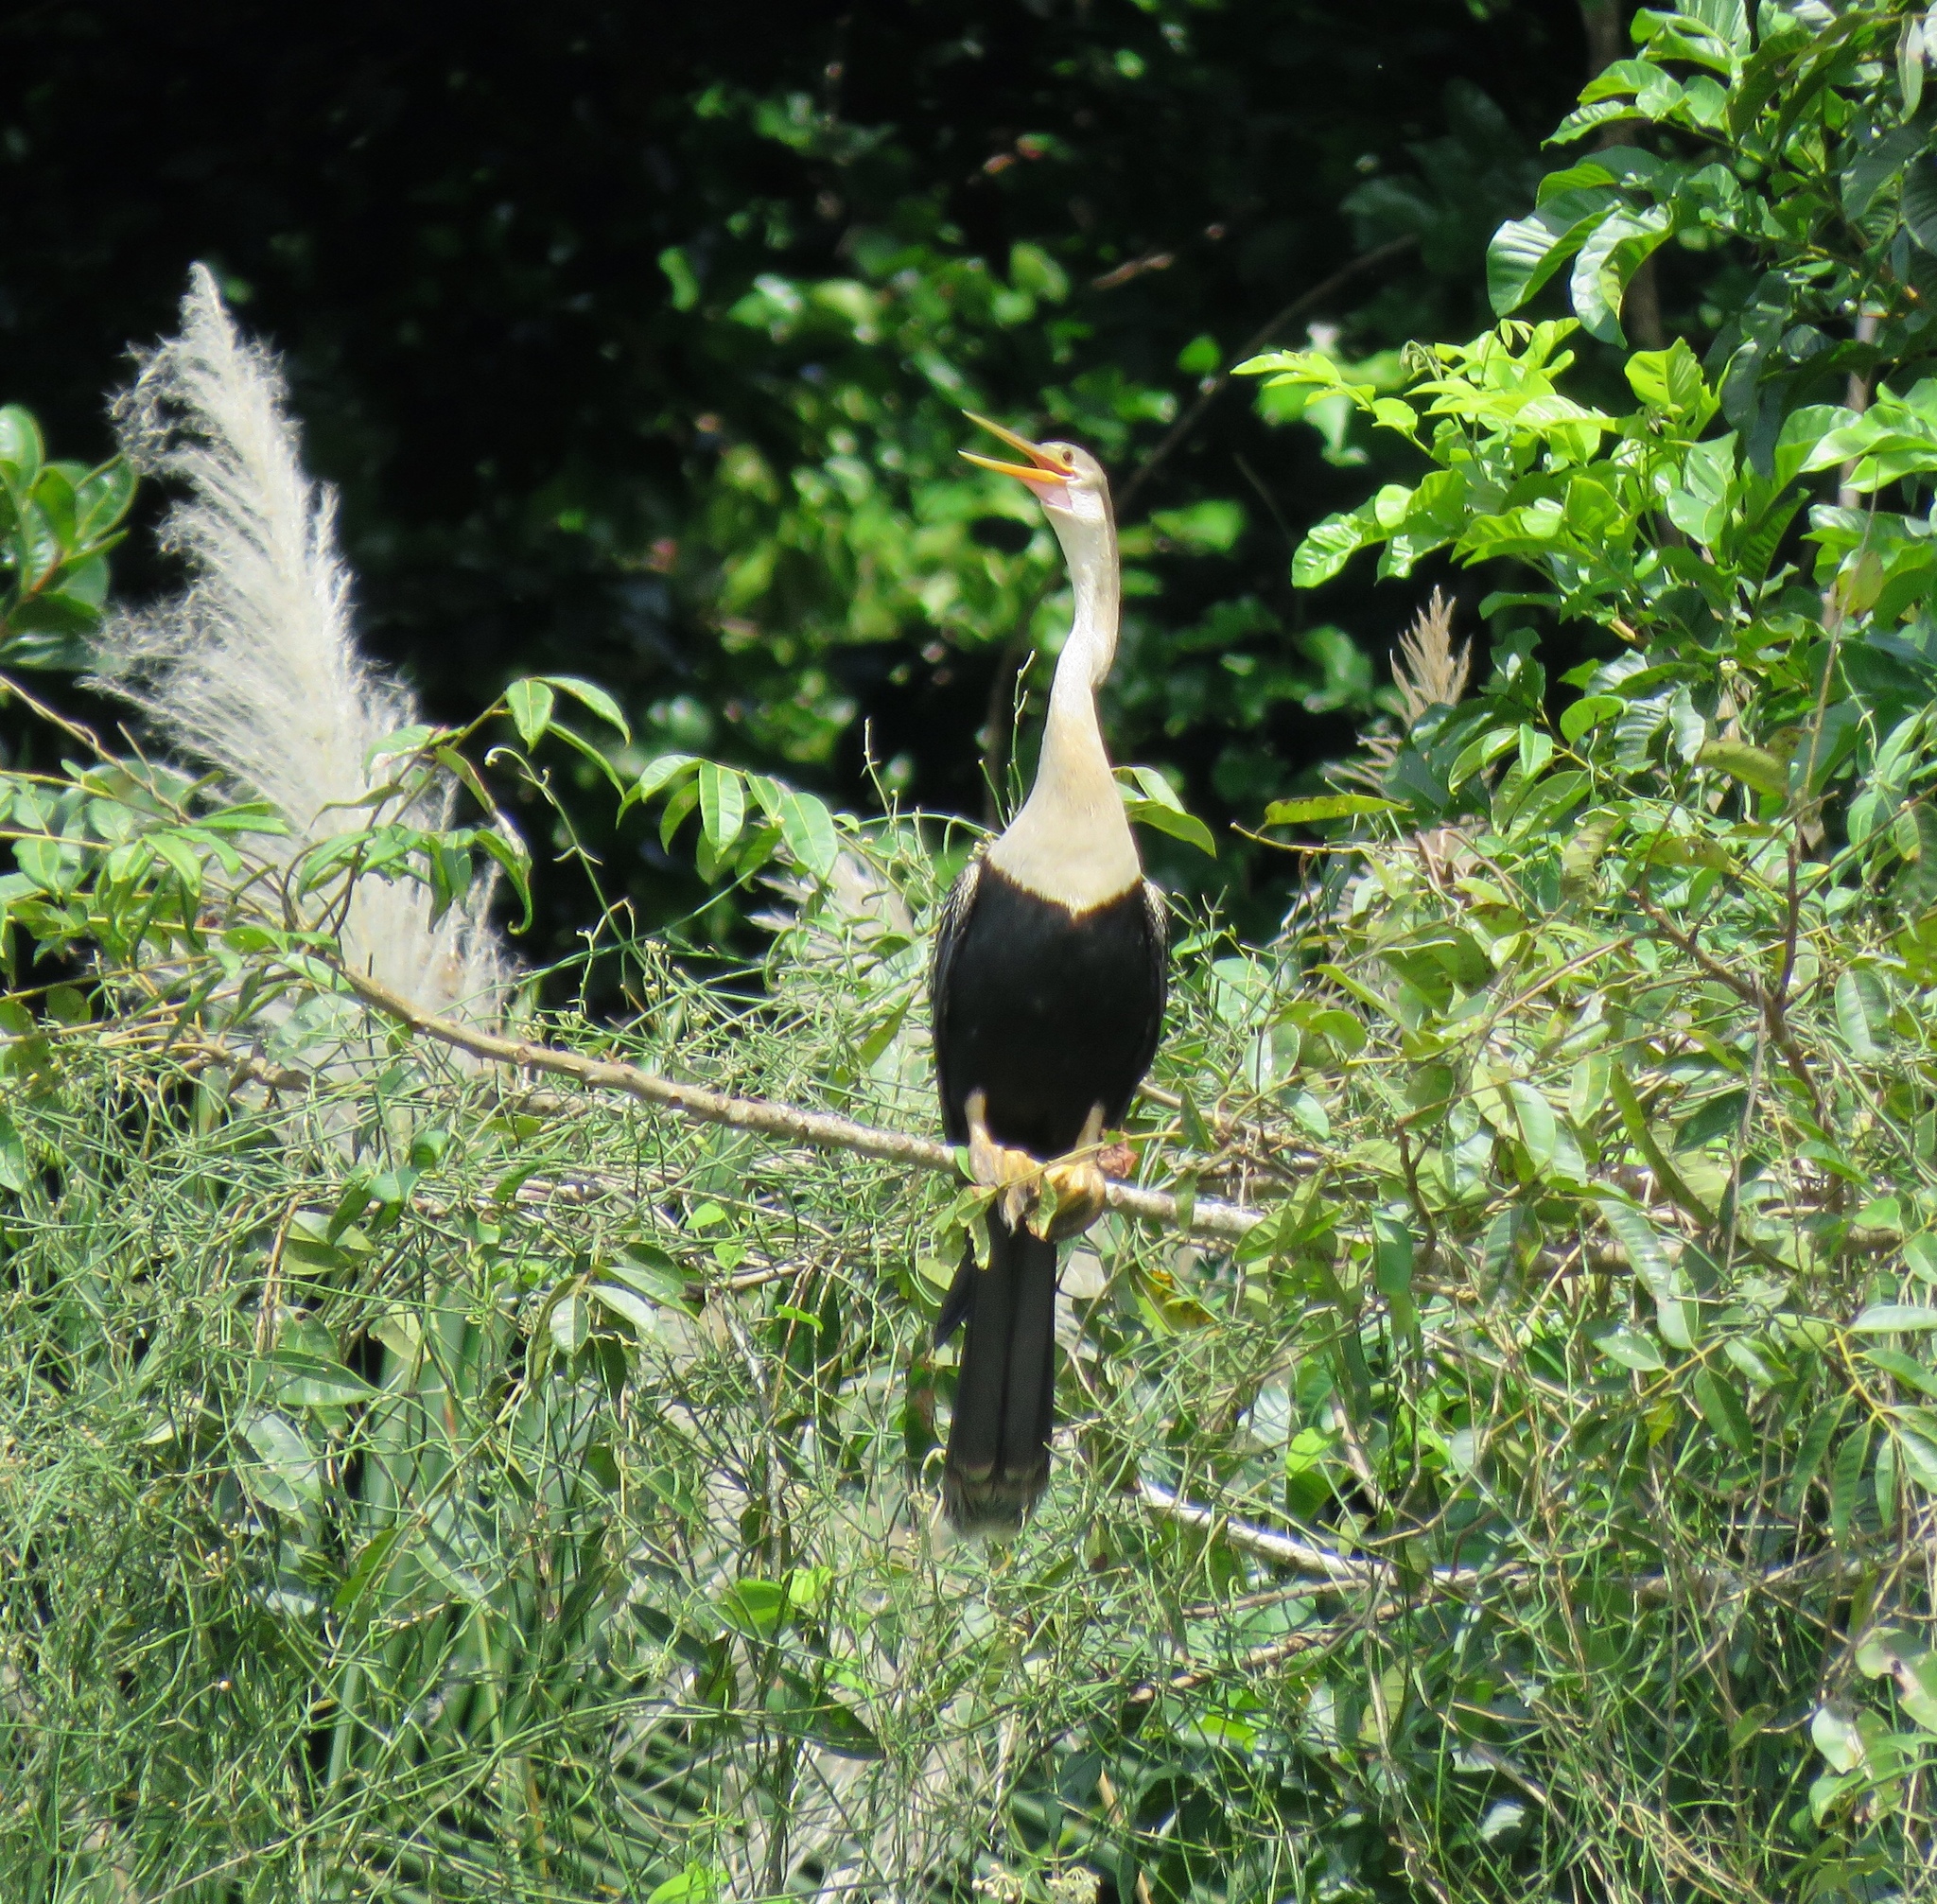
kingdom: Animalia
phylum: Chordata
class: Aves
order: Suliformes
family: Anhingidae
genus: Anhinga
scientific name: Anhinga anhinga
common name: Anhinga
